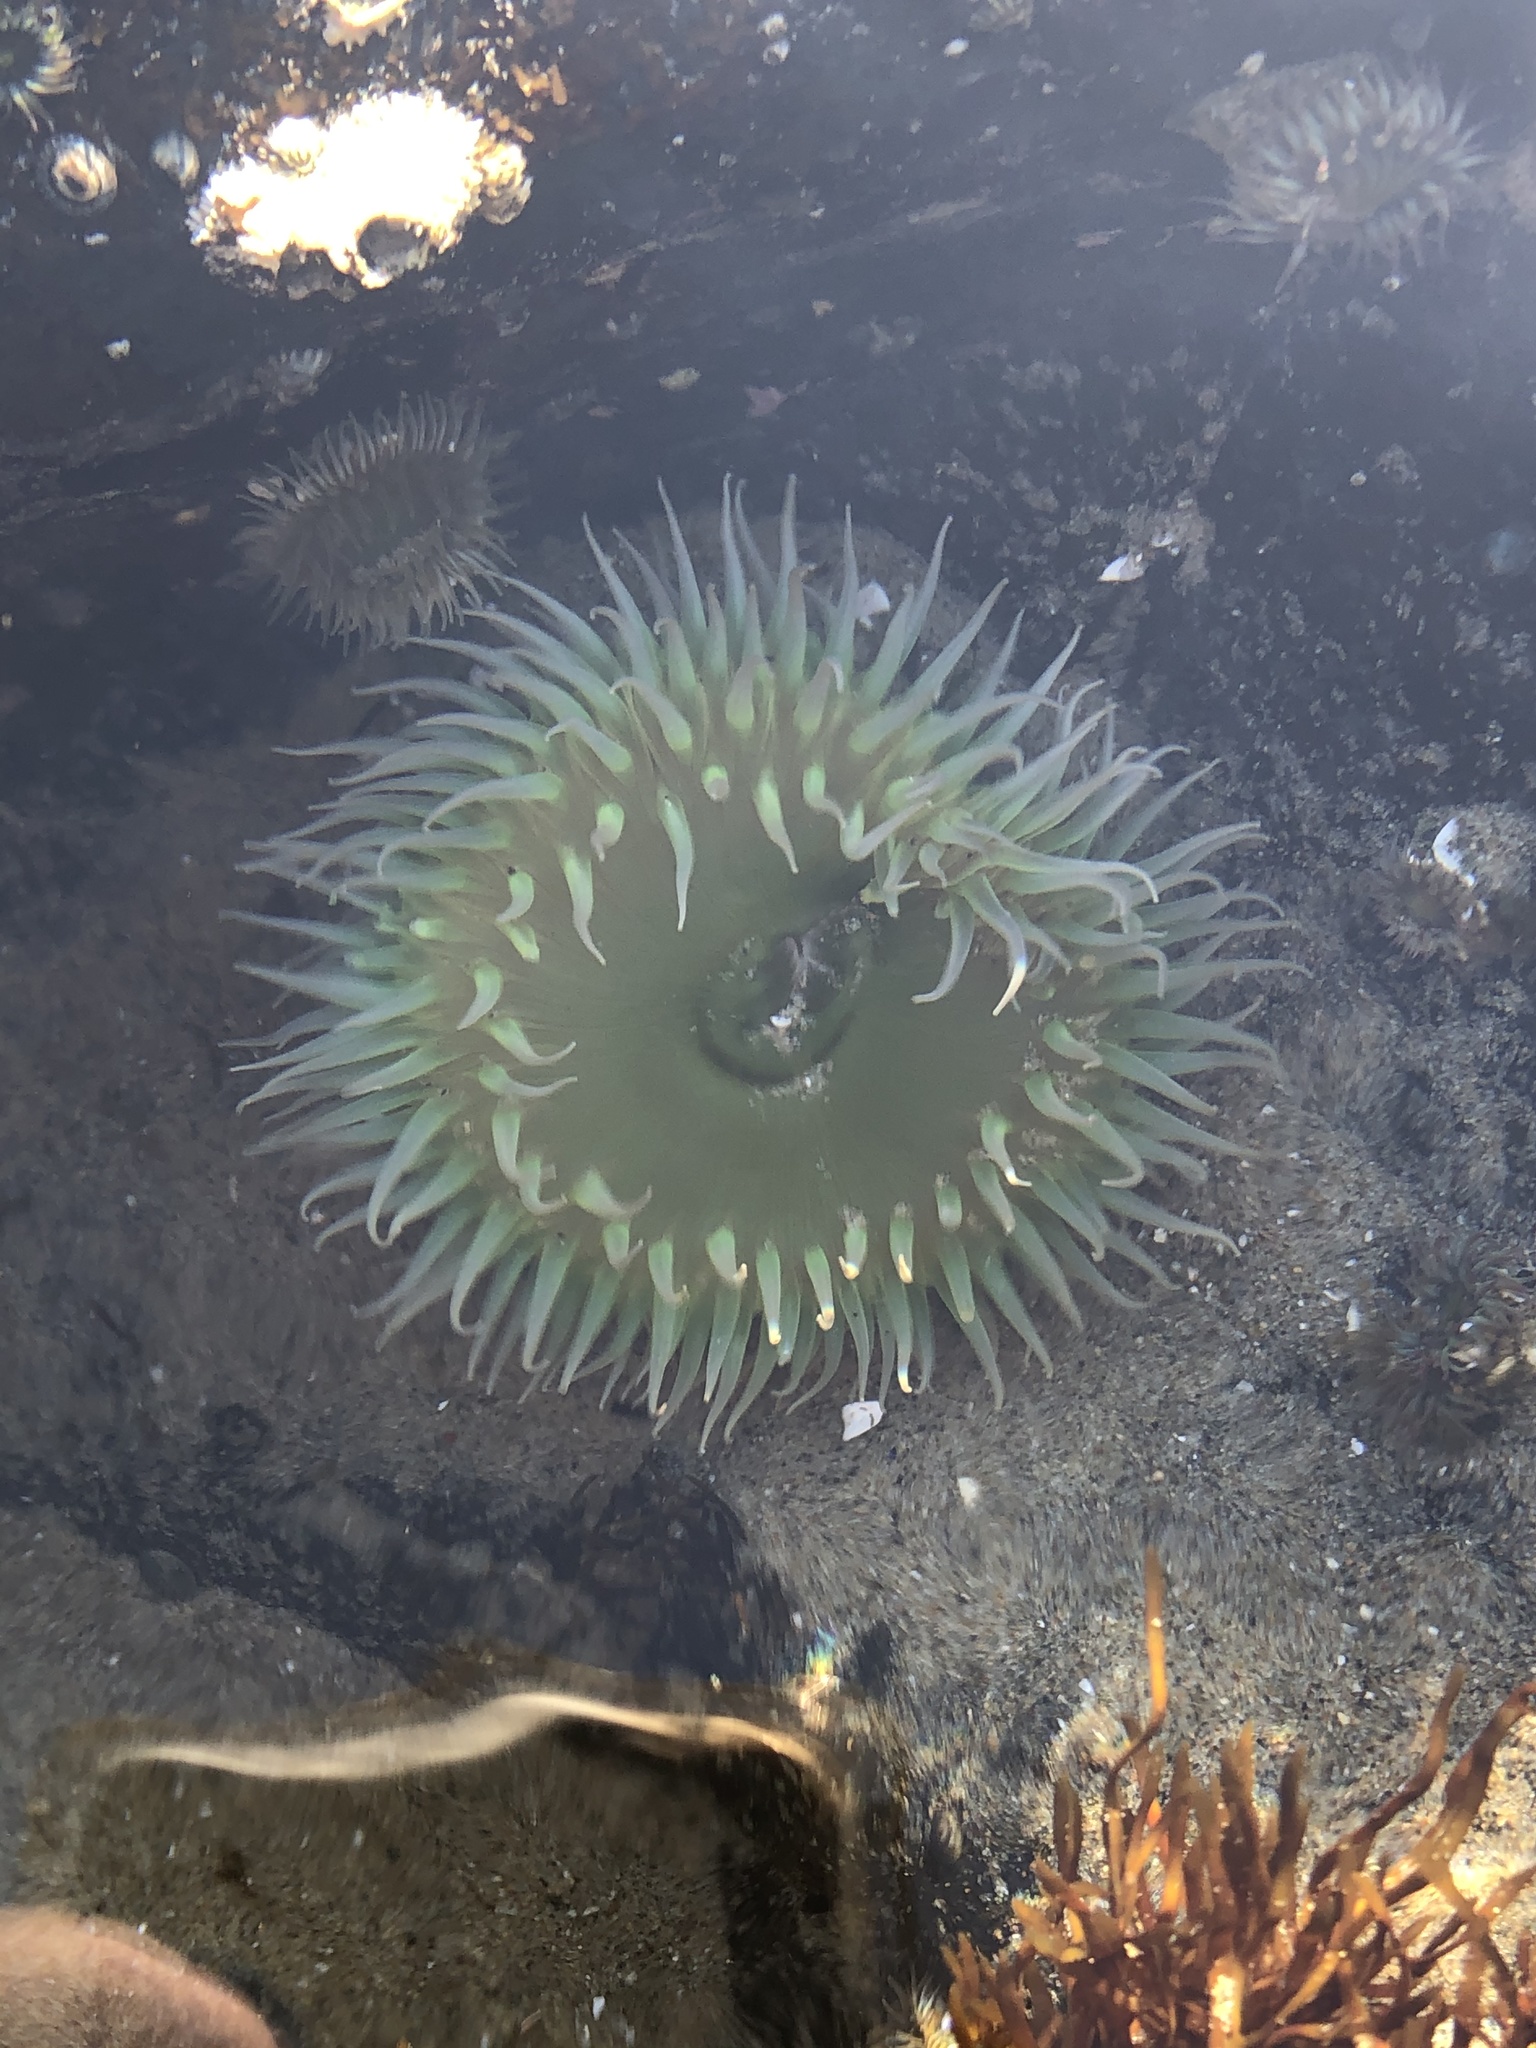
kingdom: Animalia
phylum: Cnidaria
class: Anthozoa
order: Actiniaria
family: Actiniidae
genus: Anthopleura
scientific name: Anthopleura xanthogrammica
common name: Giant green anemone
